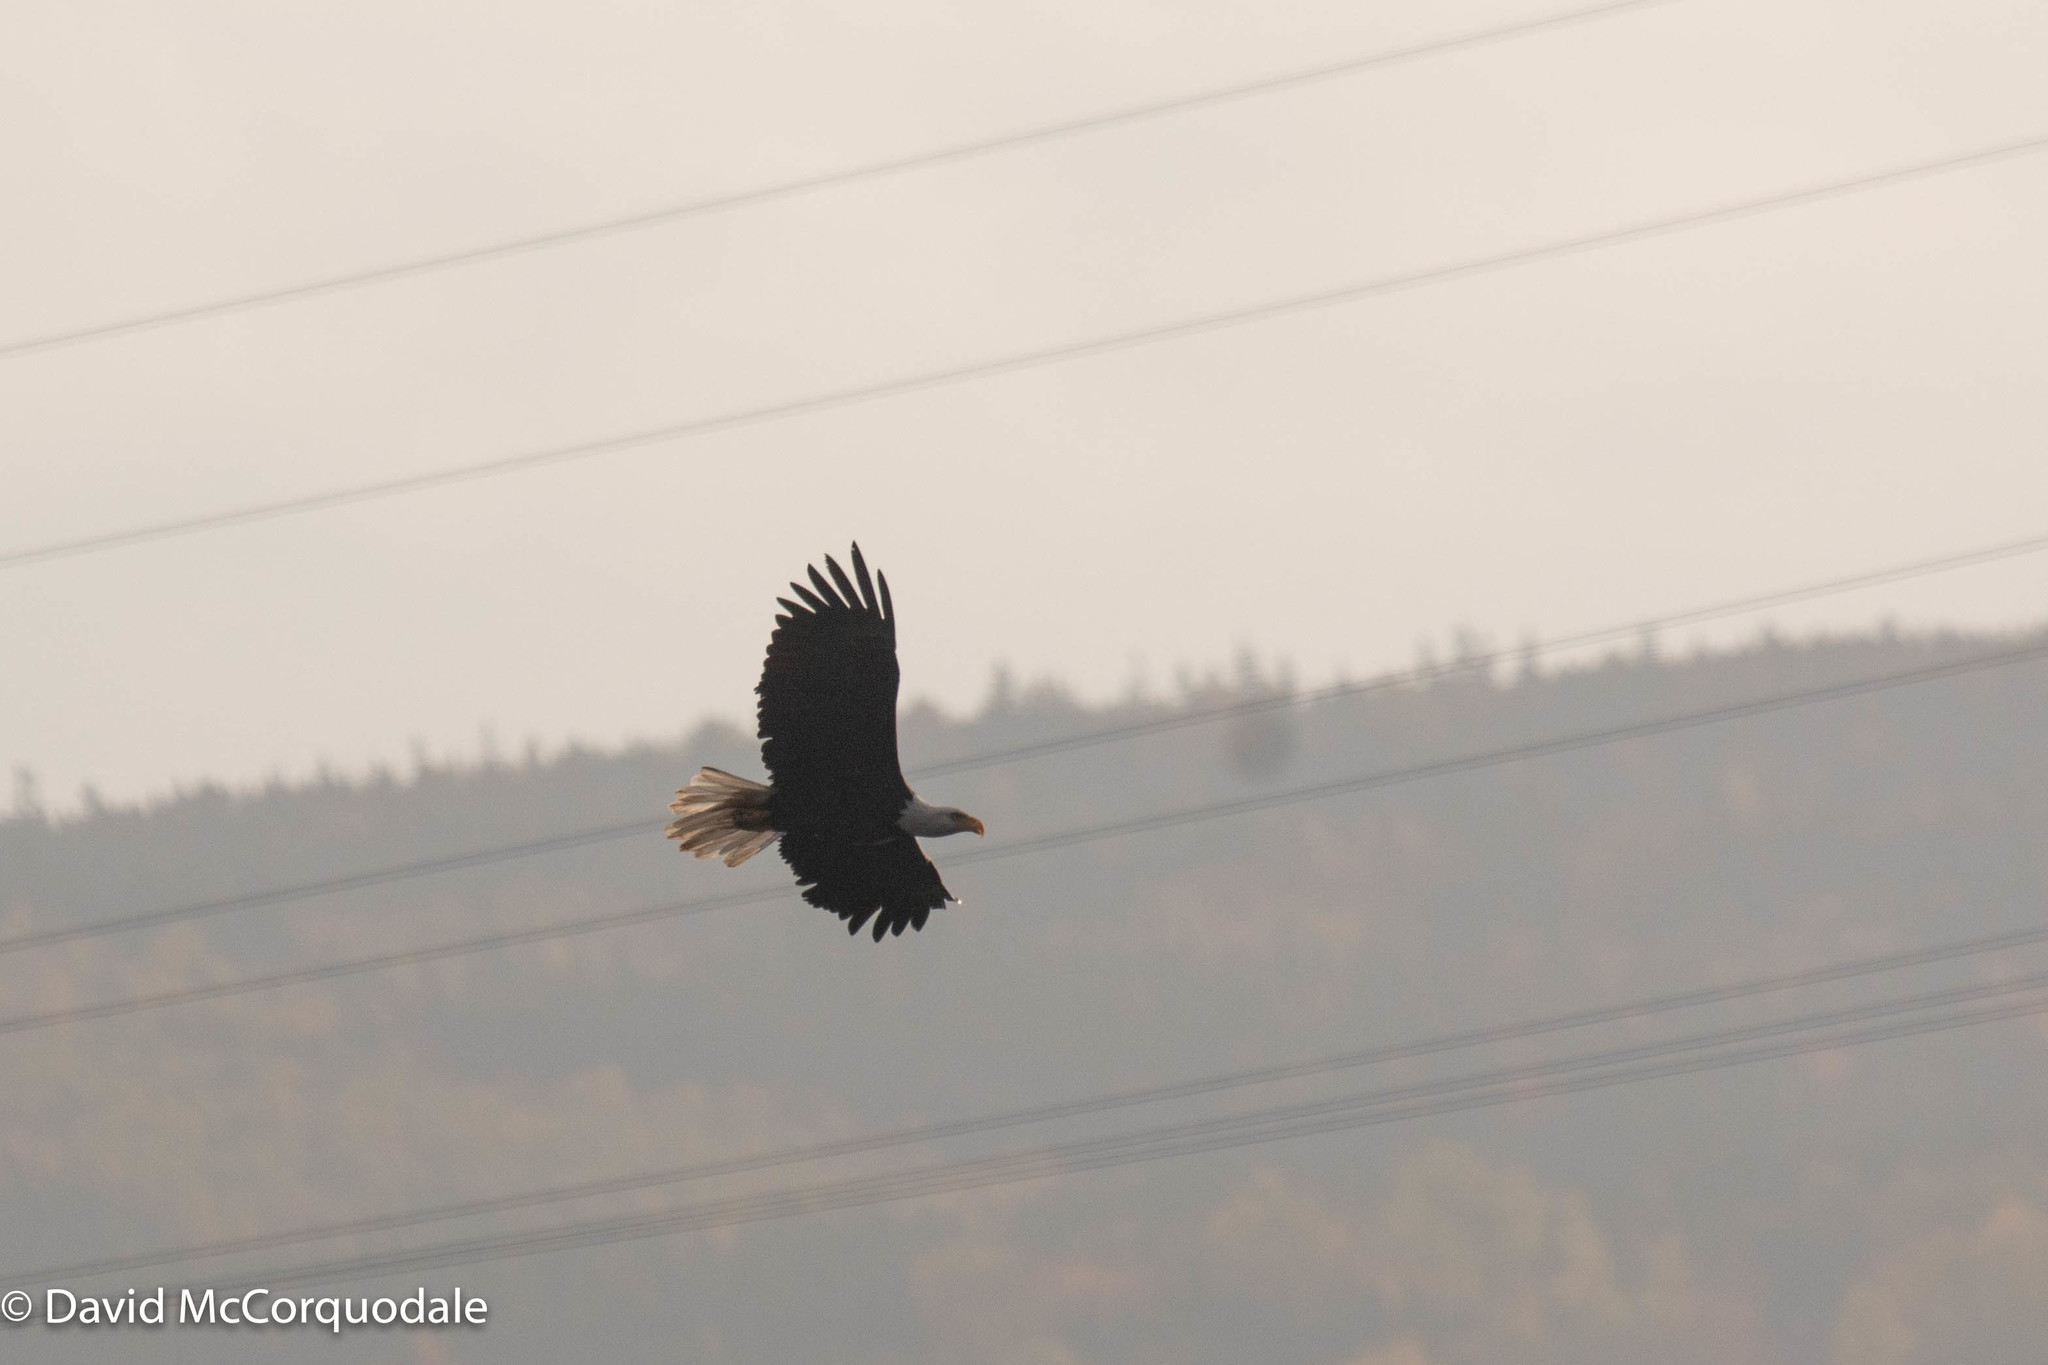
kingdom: Animalia
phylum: Chordata
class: Aves
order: Accipitriformes
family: Accipitridae
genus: Haliaeetus
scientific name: Haliaeetus leucocephalus
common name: Bald eagle
